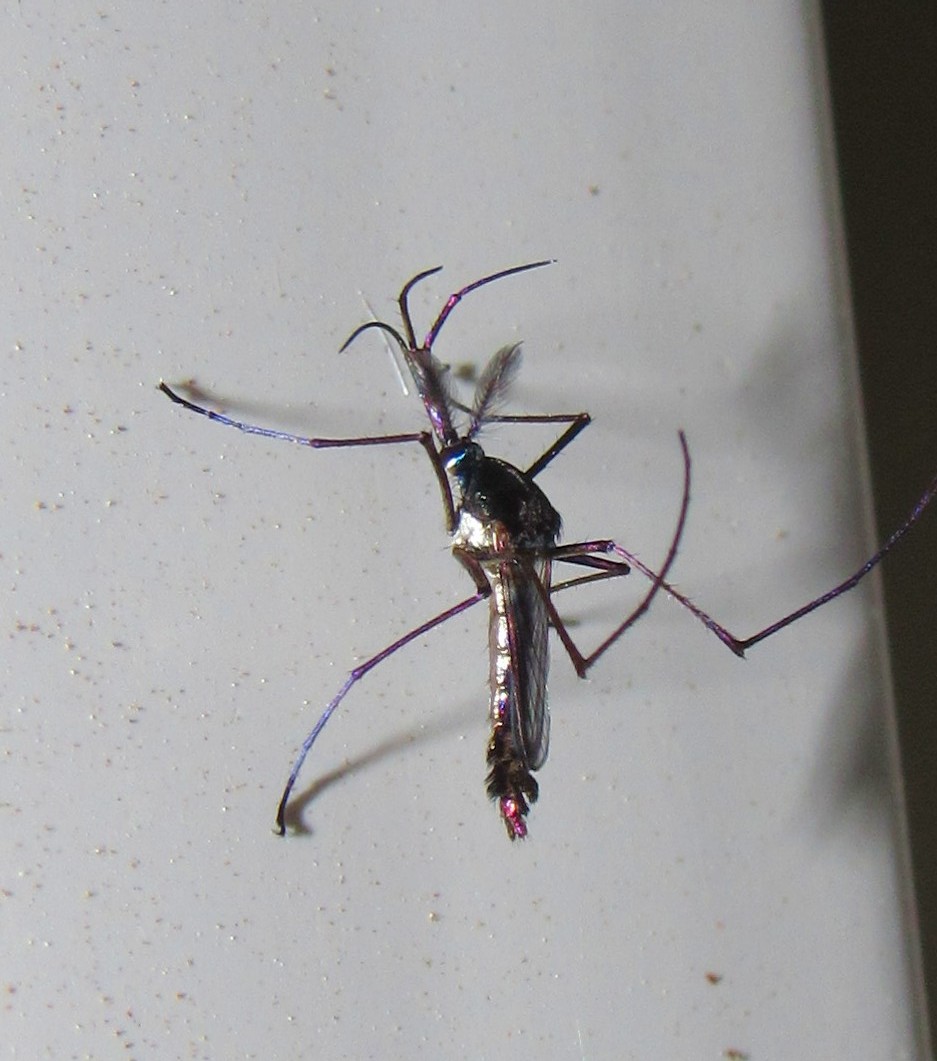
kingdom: Animalia
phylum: Arthropoda
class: Insecta
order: Diptera
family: Culicidae
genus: Toxorhynchites
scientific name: Toxorhynchites haemorrhoidalis
